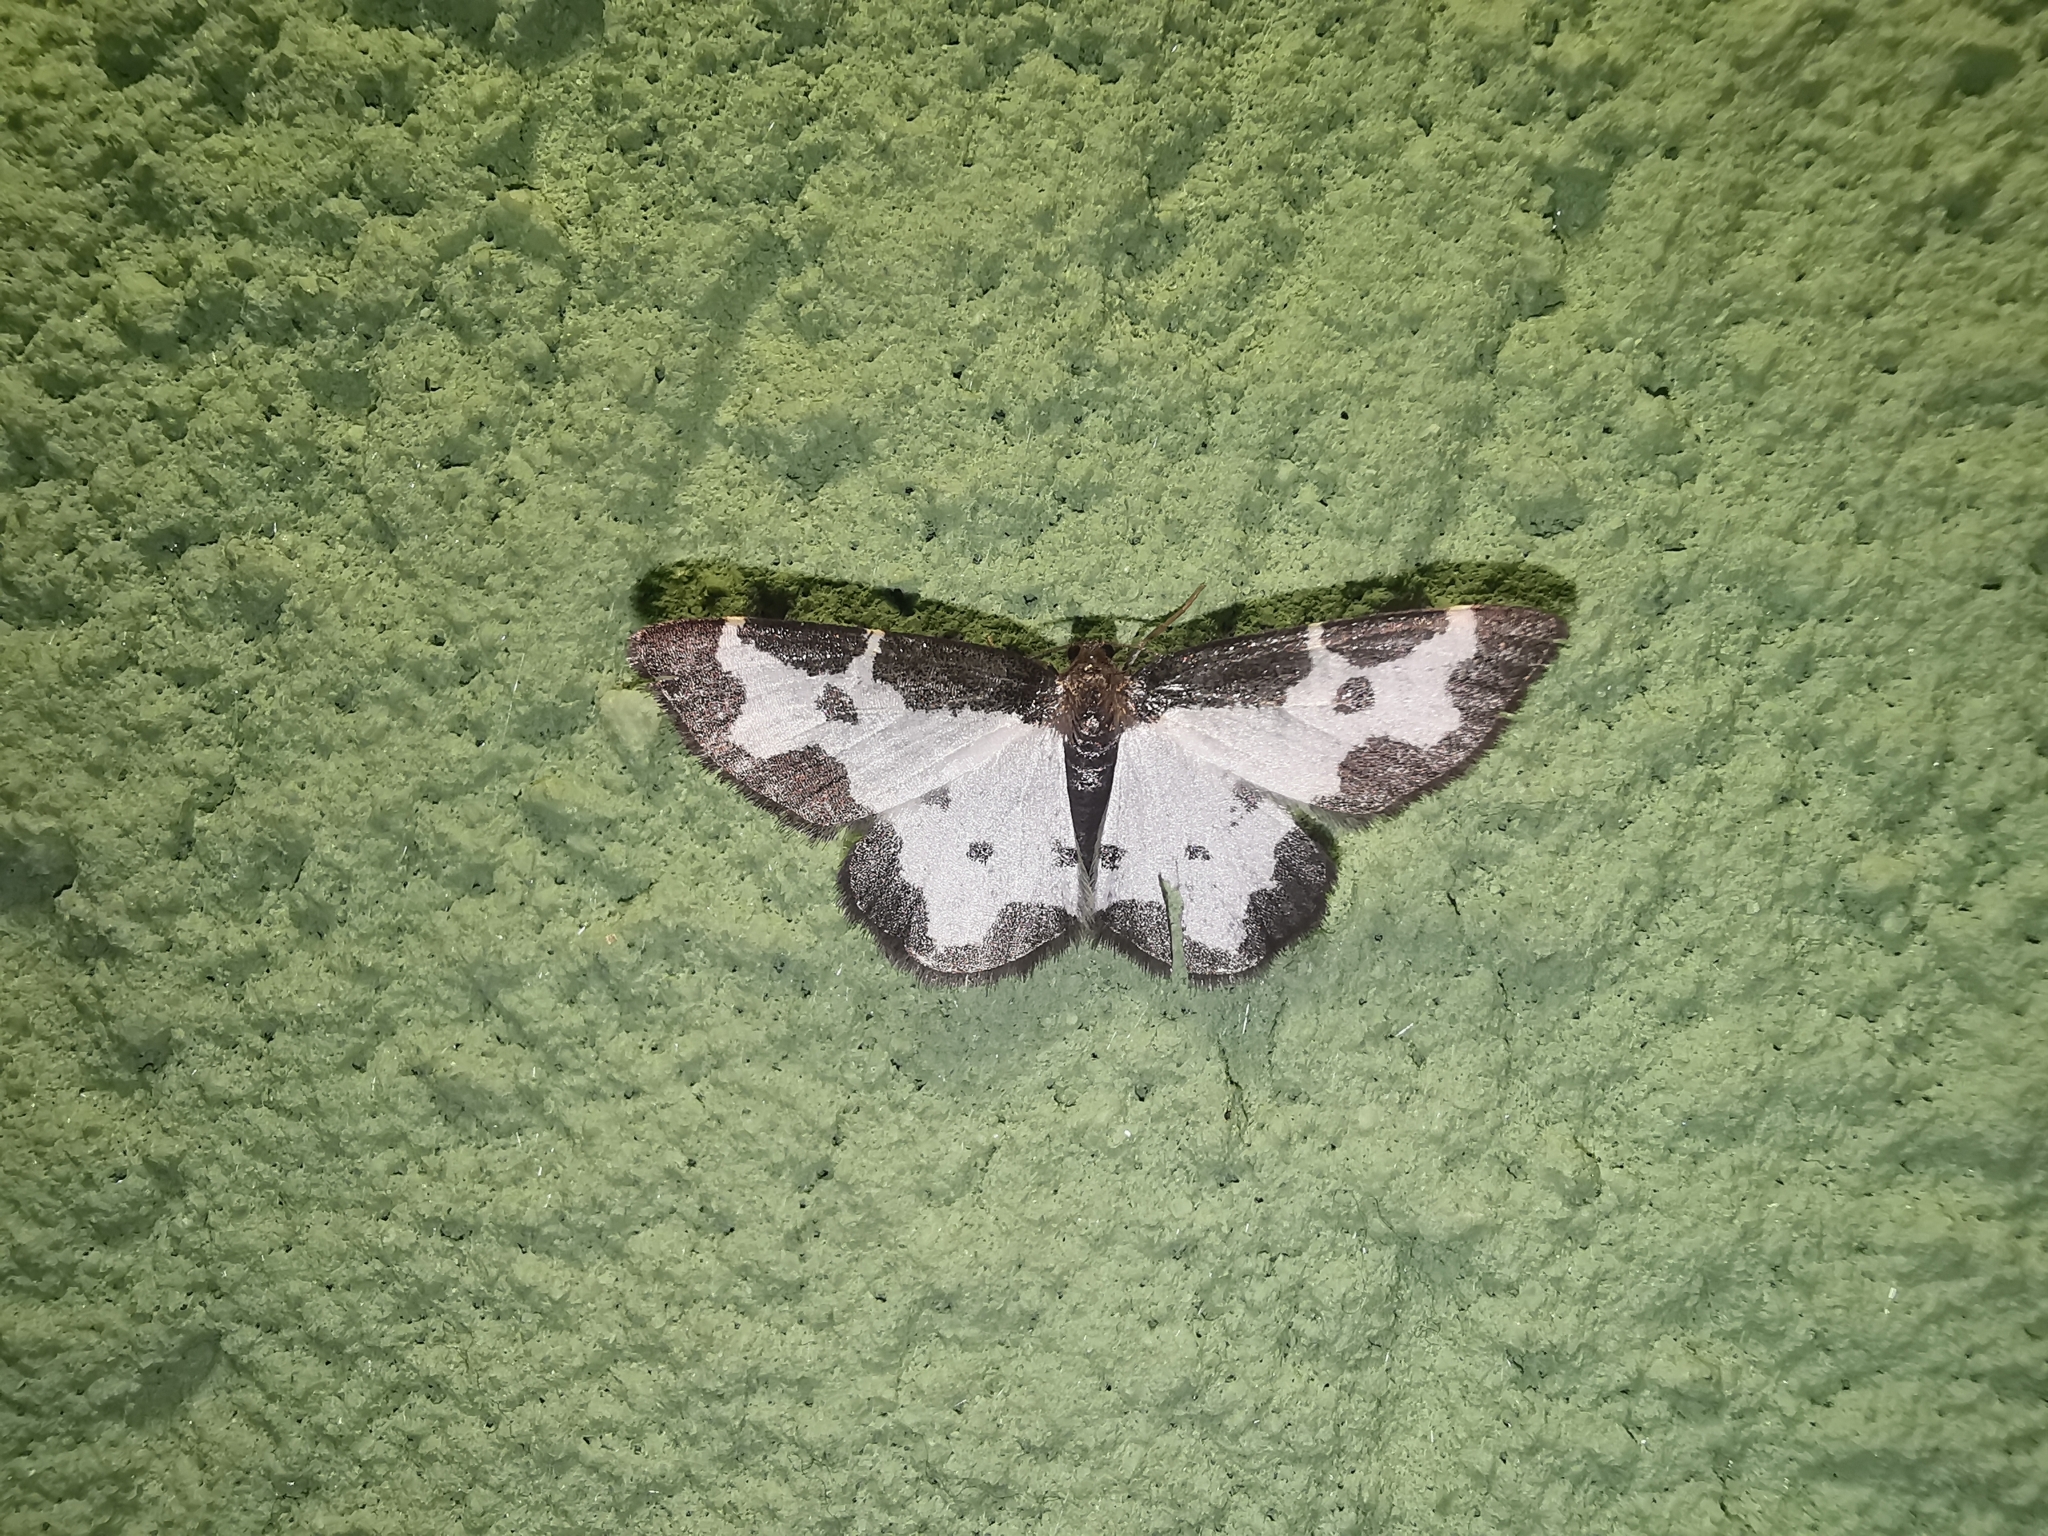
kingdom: Animalia
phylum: Arthropoda
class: Insecta
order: Lepidoptera
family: Geometridae
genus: Lomaspilis
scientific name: Lomaspilis marginata
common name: Clouded border
